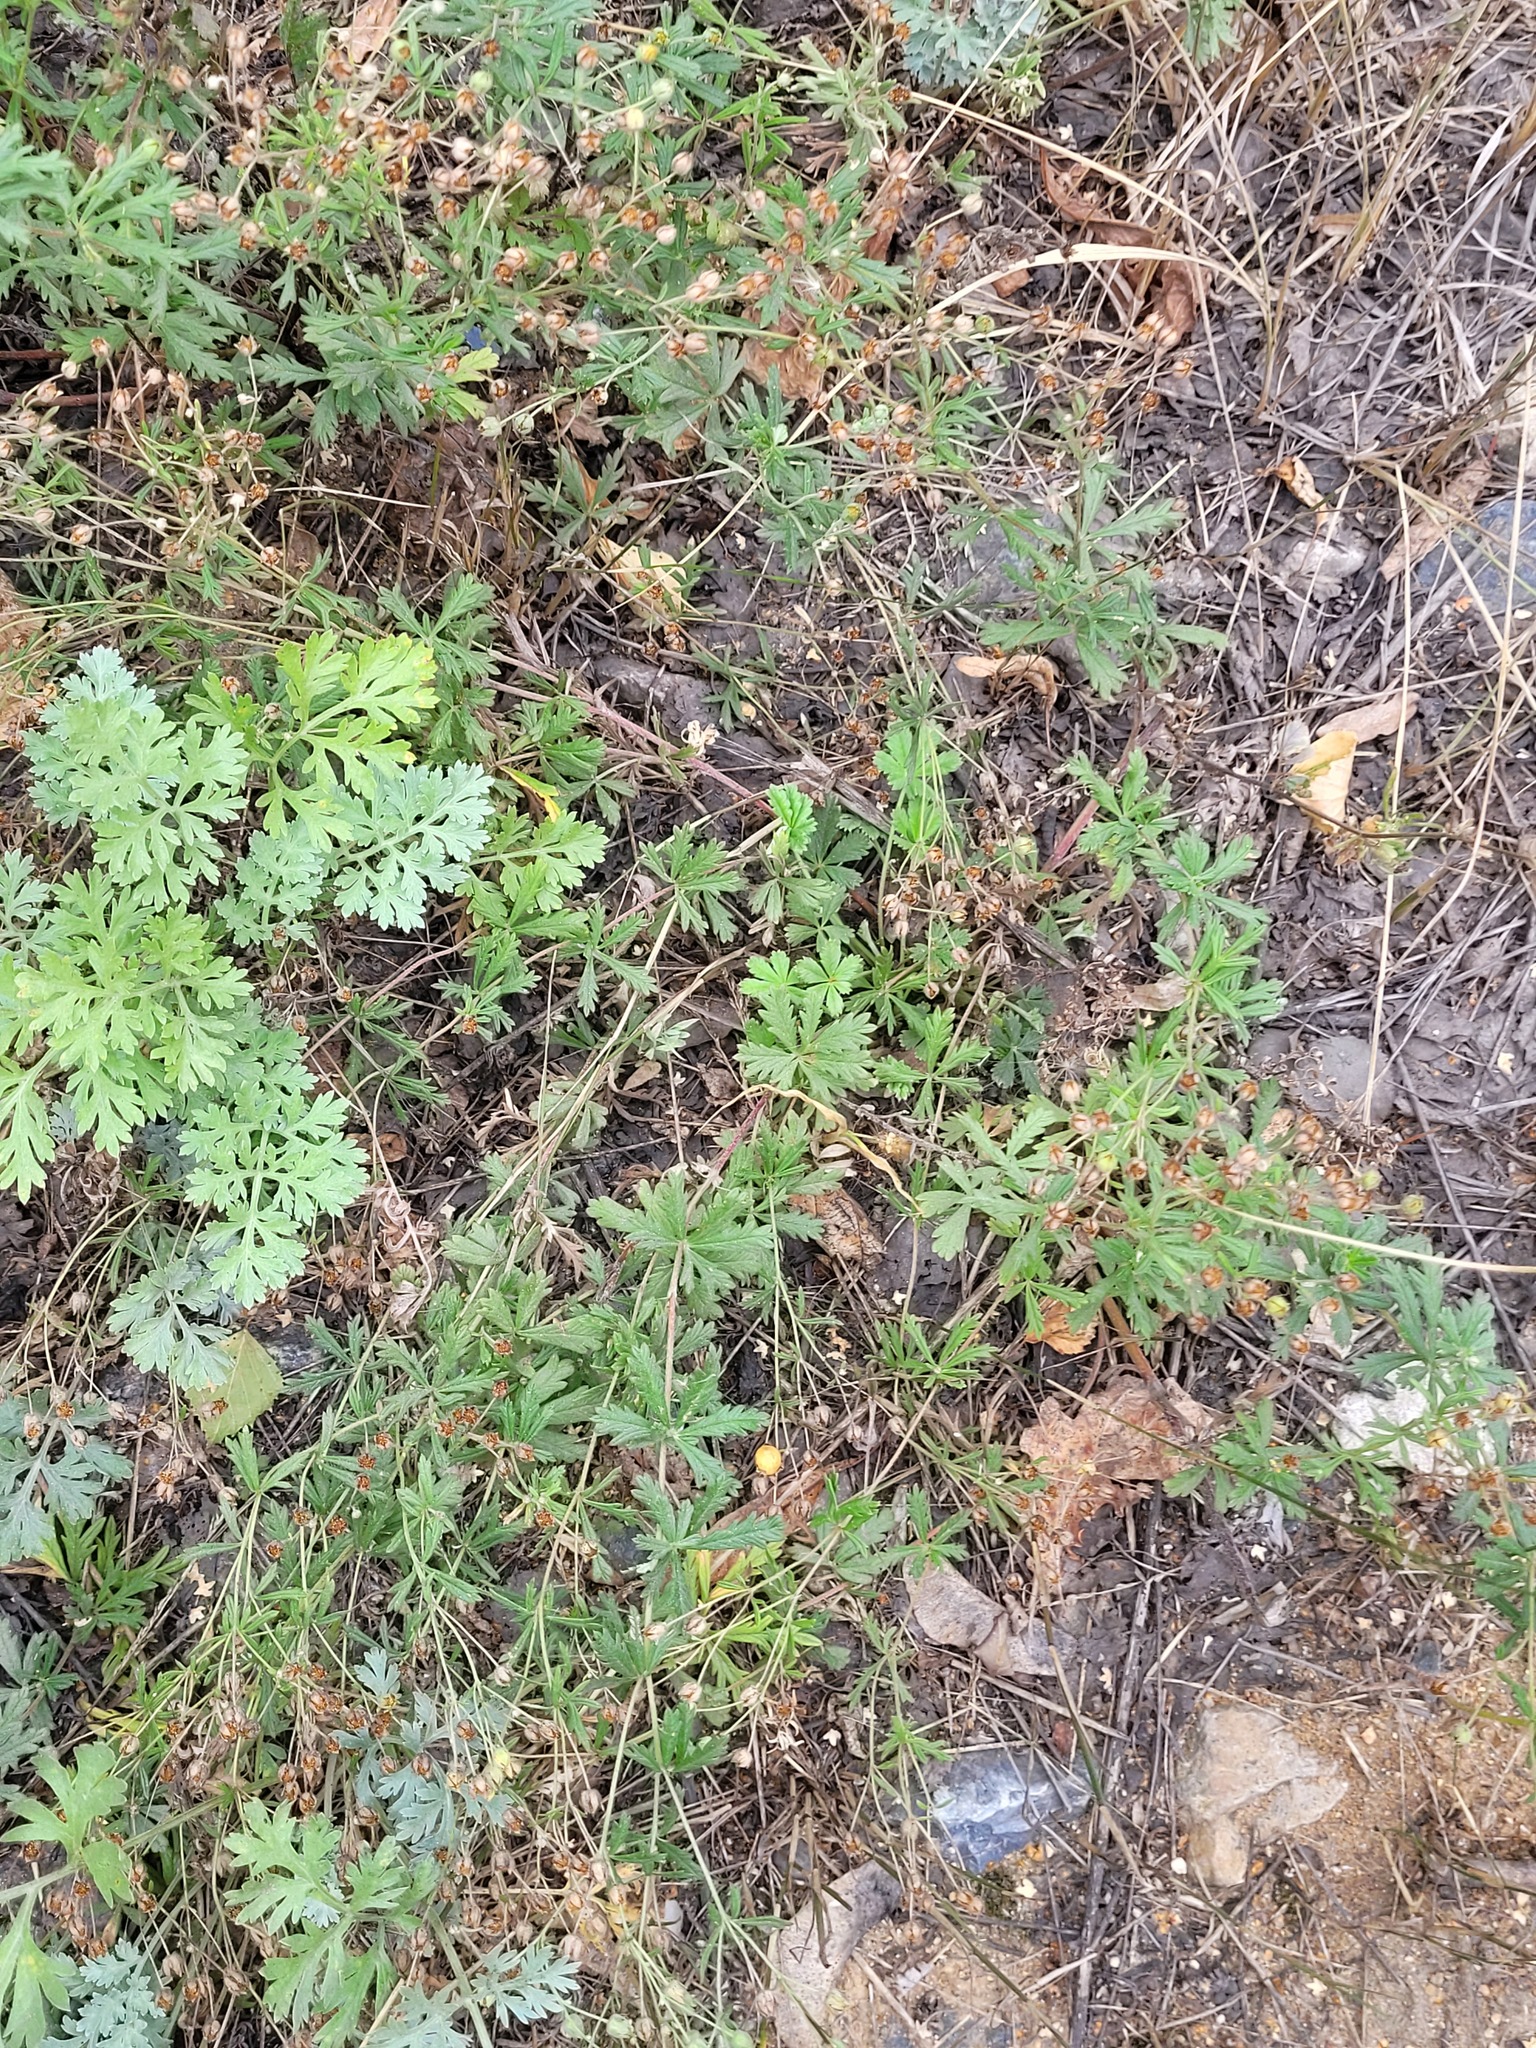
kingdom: Plantae
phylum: Tracheophyta
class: Magnoliopsida
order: Rosales
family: Rosaceae
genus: Potentilla
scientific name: Potentilla argentea
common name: Hoary cinquefoil
